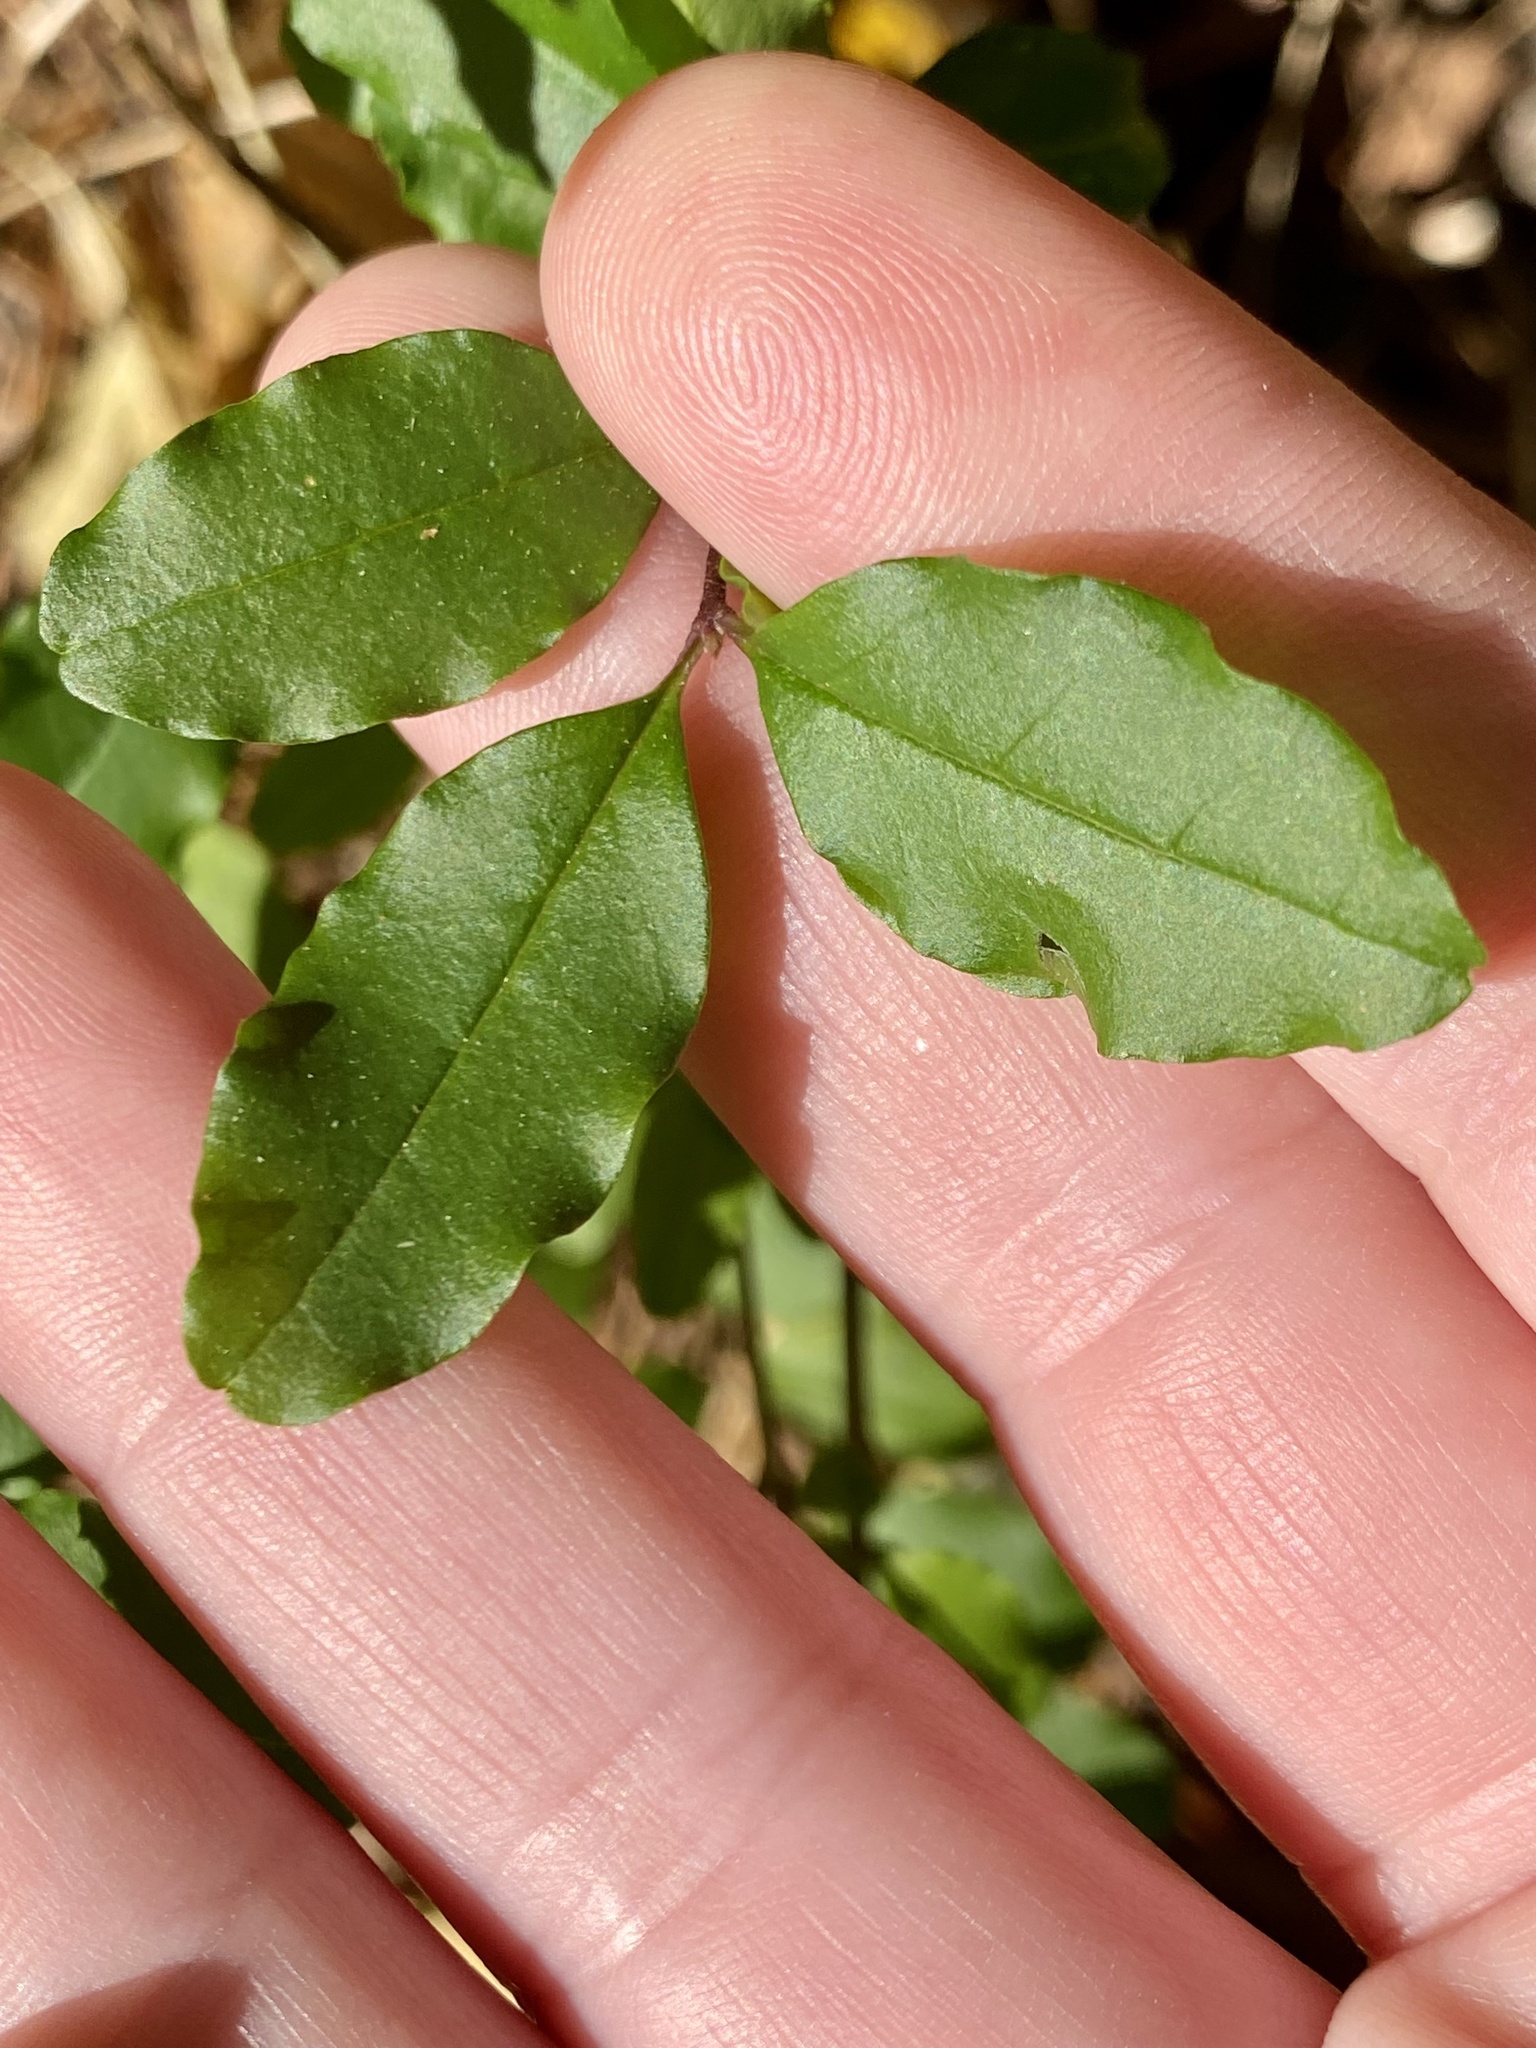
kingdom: Plantae
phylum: Tracheophyta
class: Magnoliopsida
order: Lamiales
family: Oleaceae
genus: Ligustrum
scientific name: Ligustrum sinense
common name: Chinese privet
